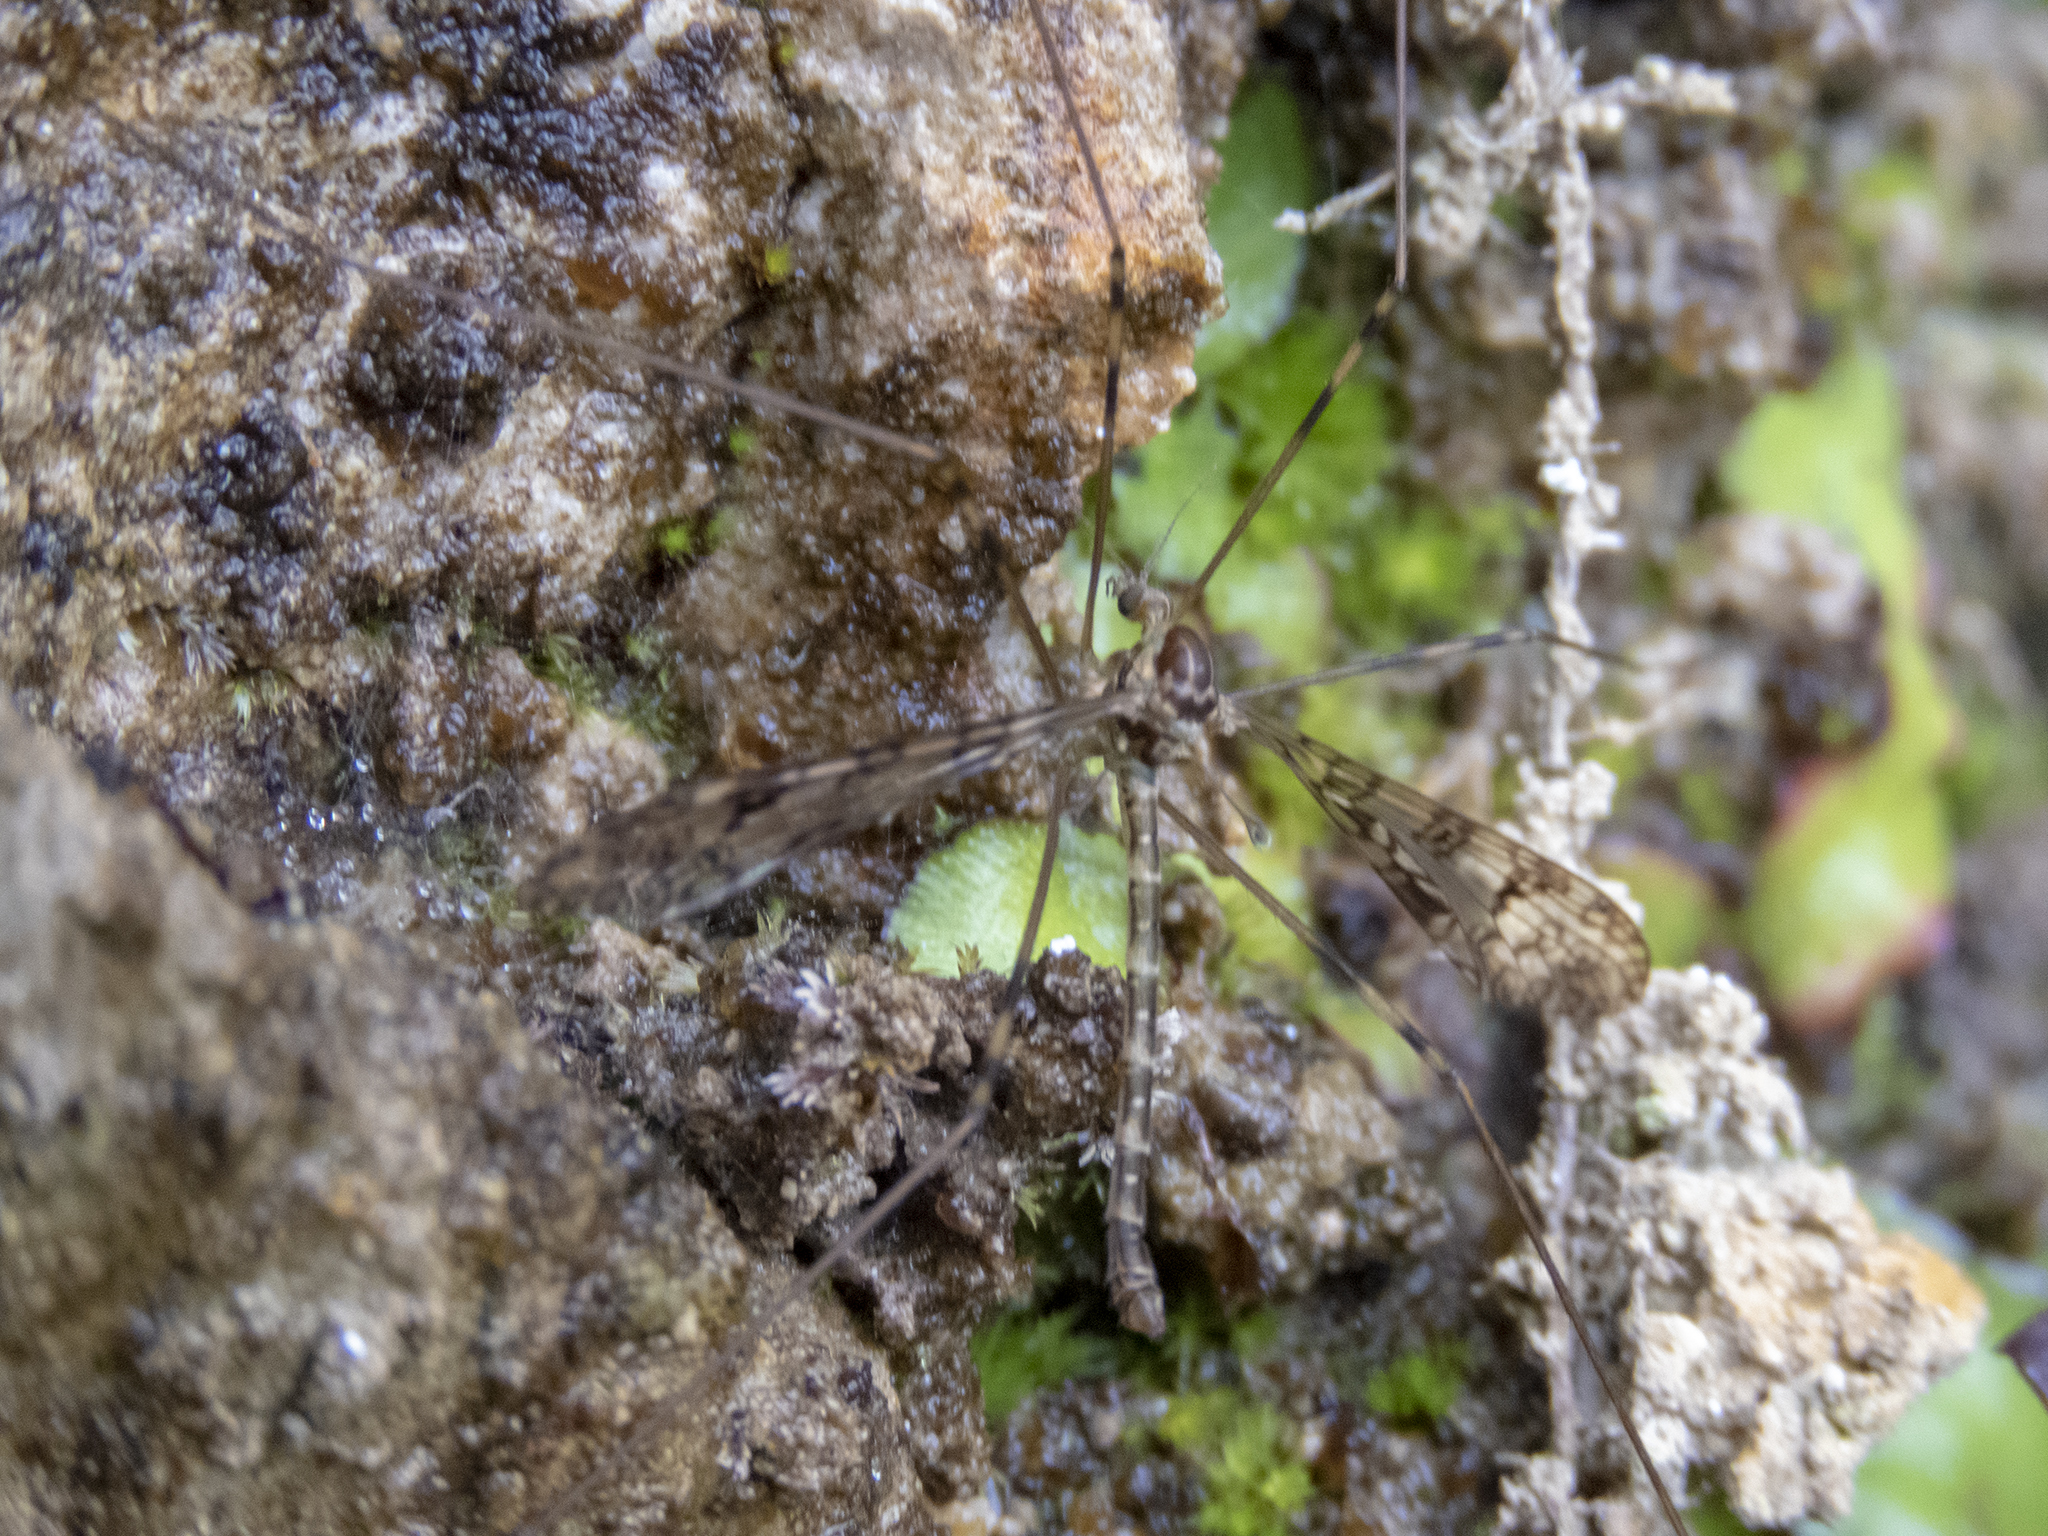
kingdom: Animalia
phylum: Arthropoda
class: Insecta
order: Diptera
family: Limoniidae
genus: Austrolimnophila
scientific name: Austrolimnophila argus
